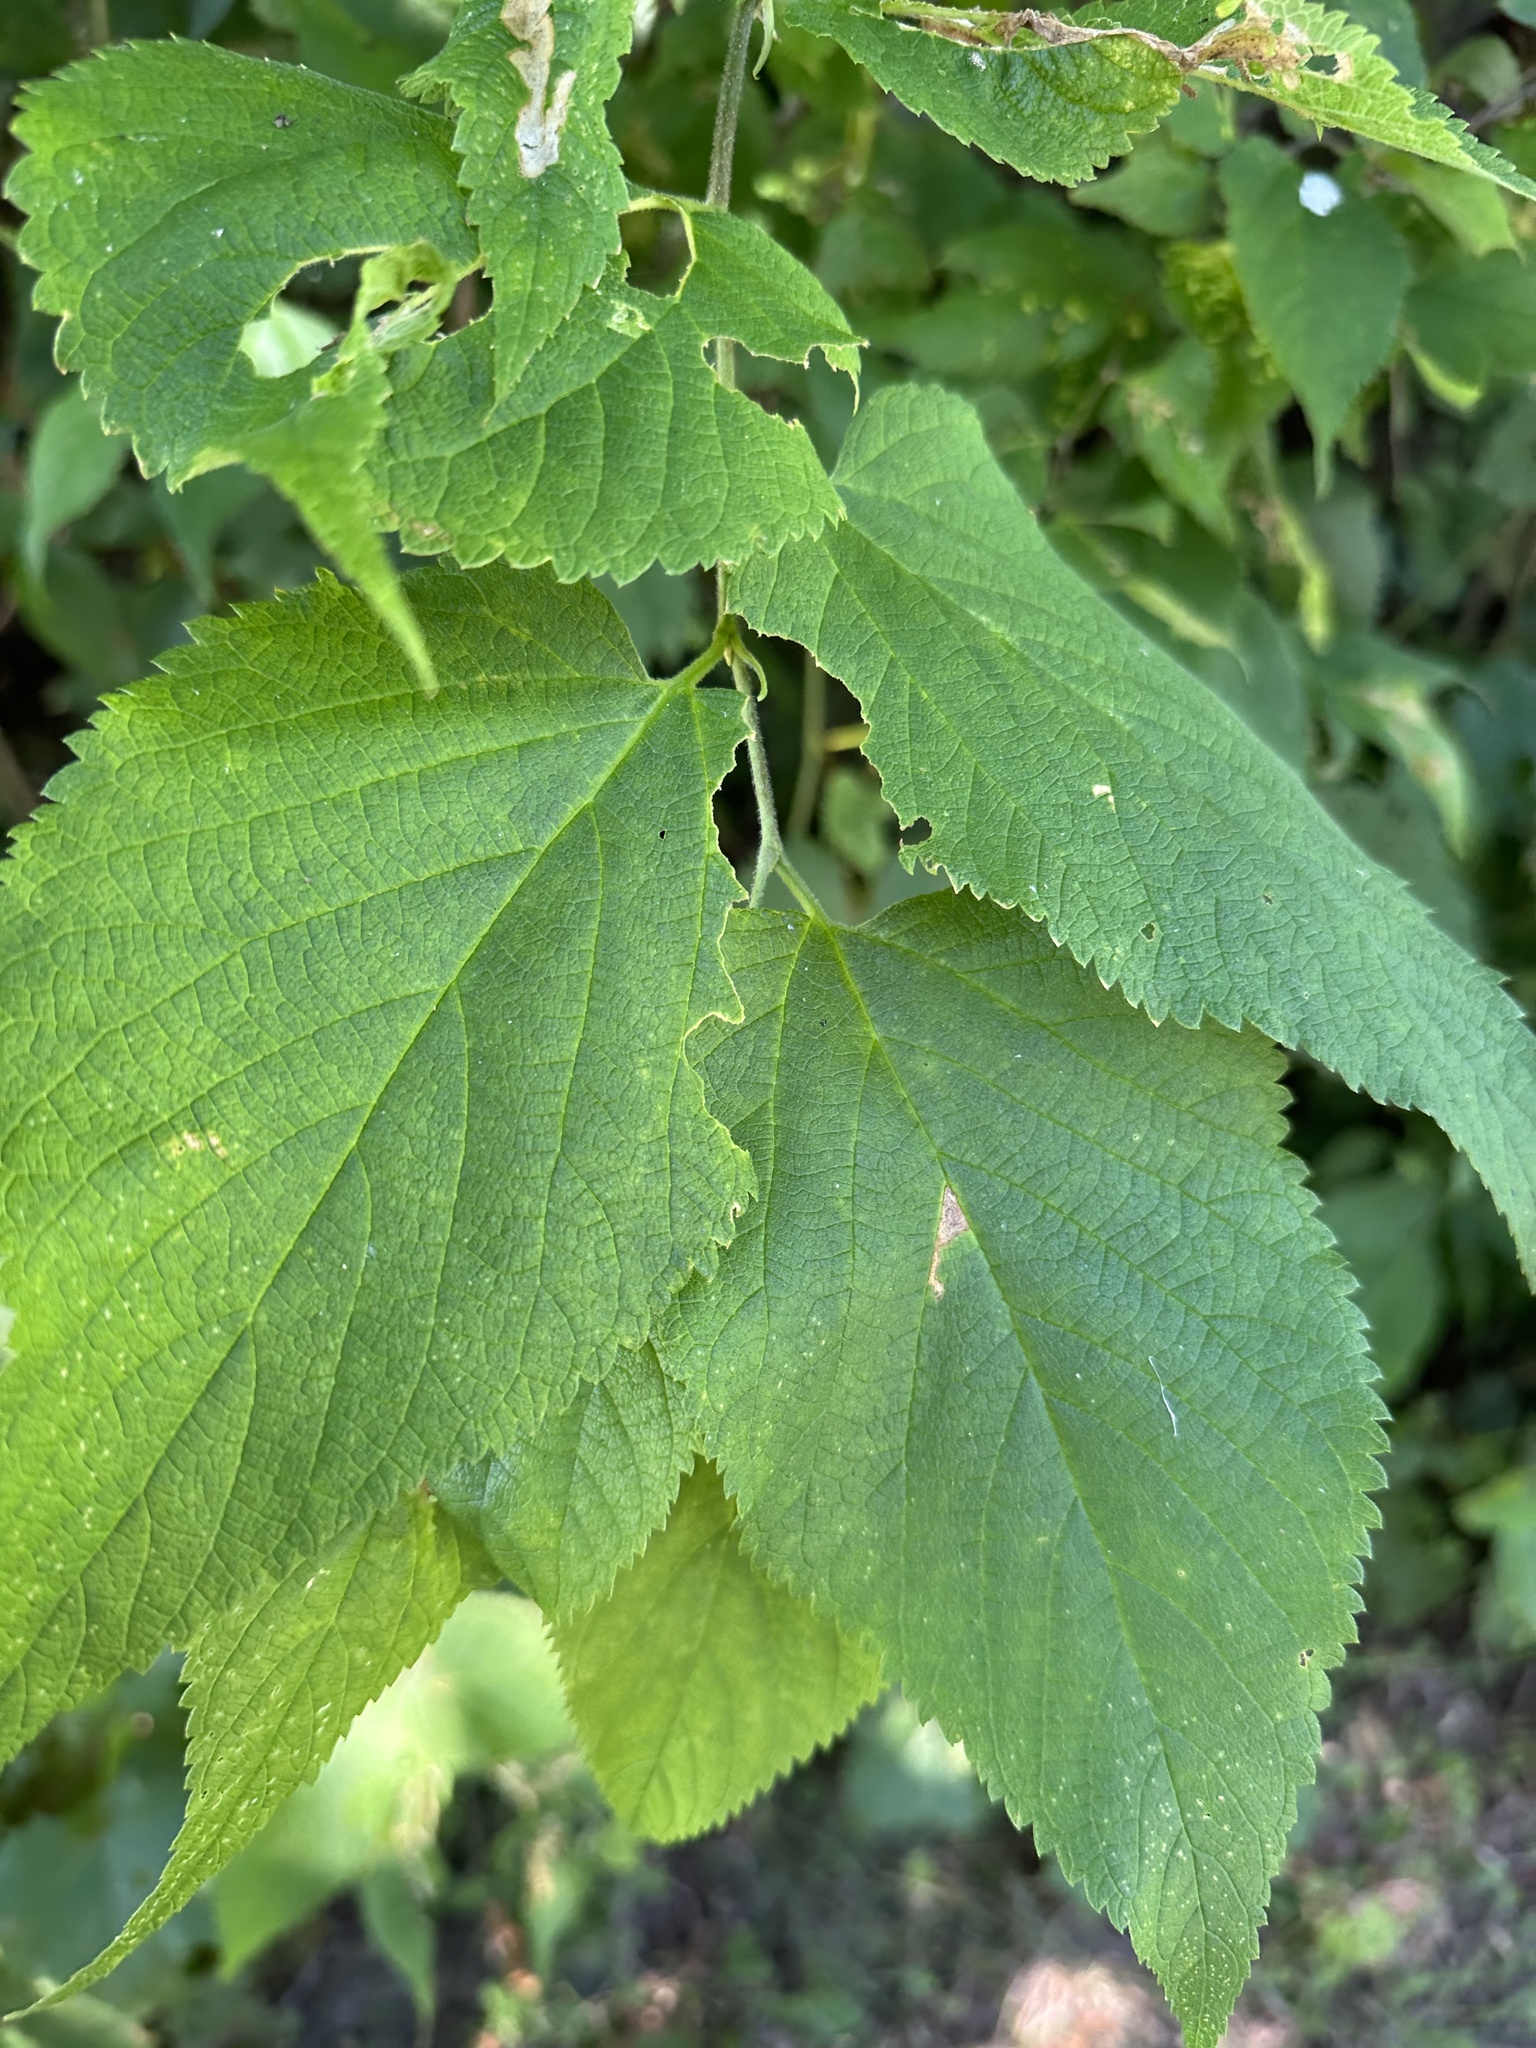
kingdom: Plantae
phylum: Tracheophyta
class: Magnoliopsida
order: Rosales
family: Cannabaceae
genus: Celtis
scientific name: Celtis occidentalis
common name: Common hackberry
